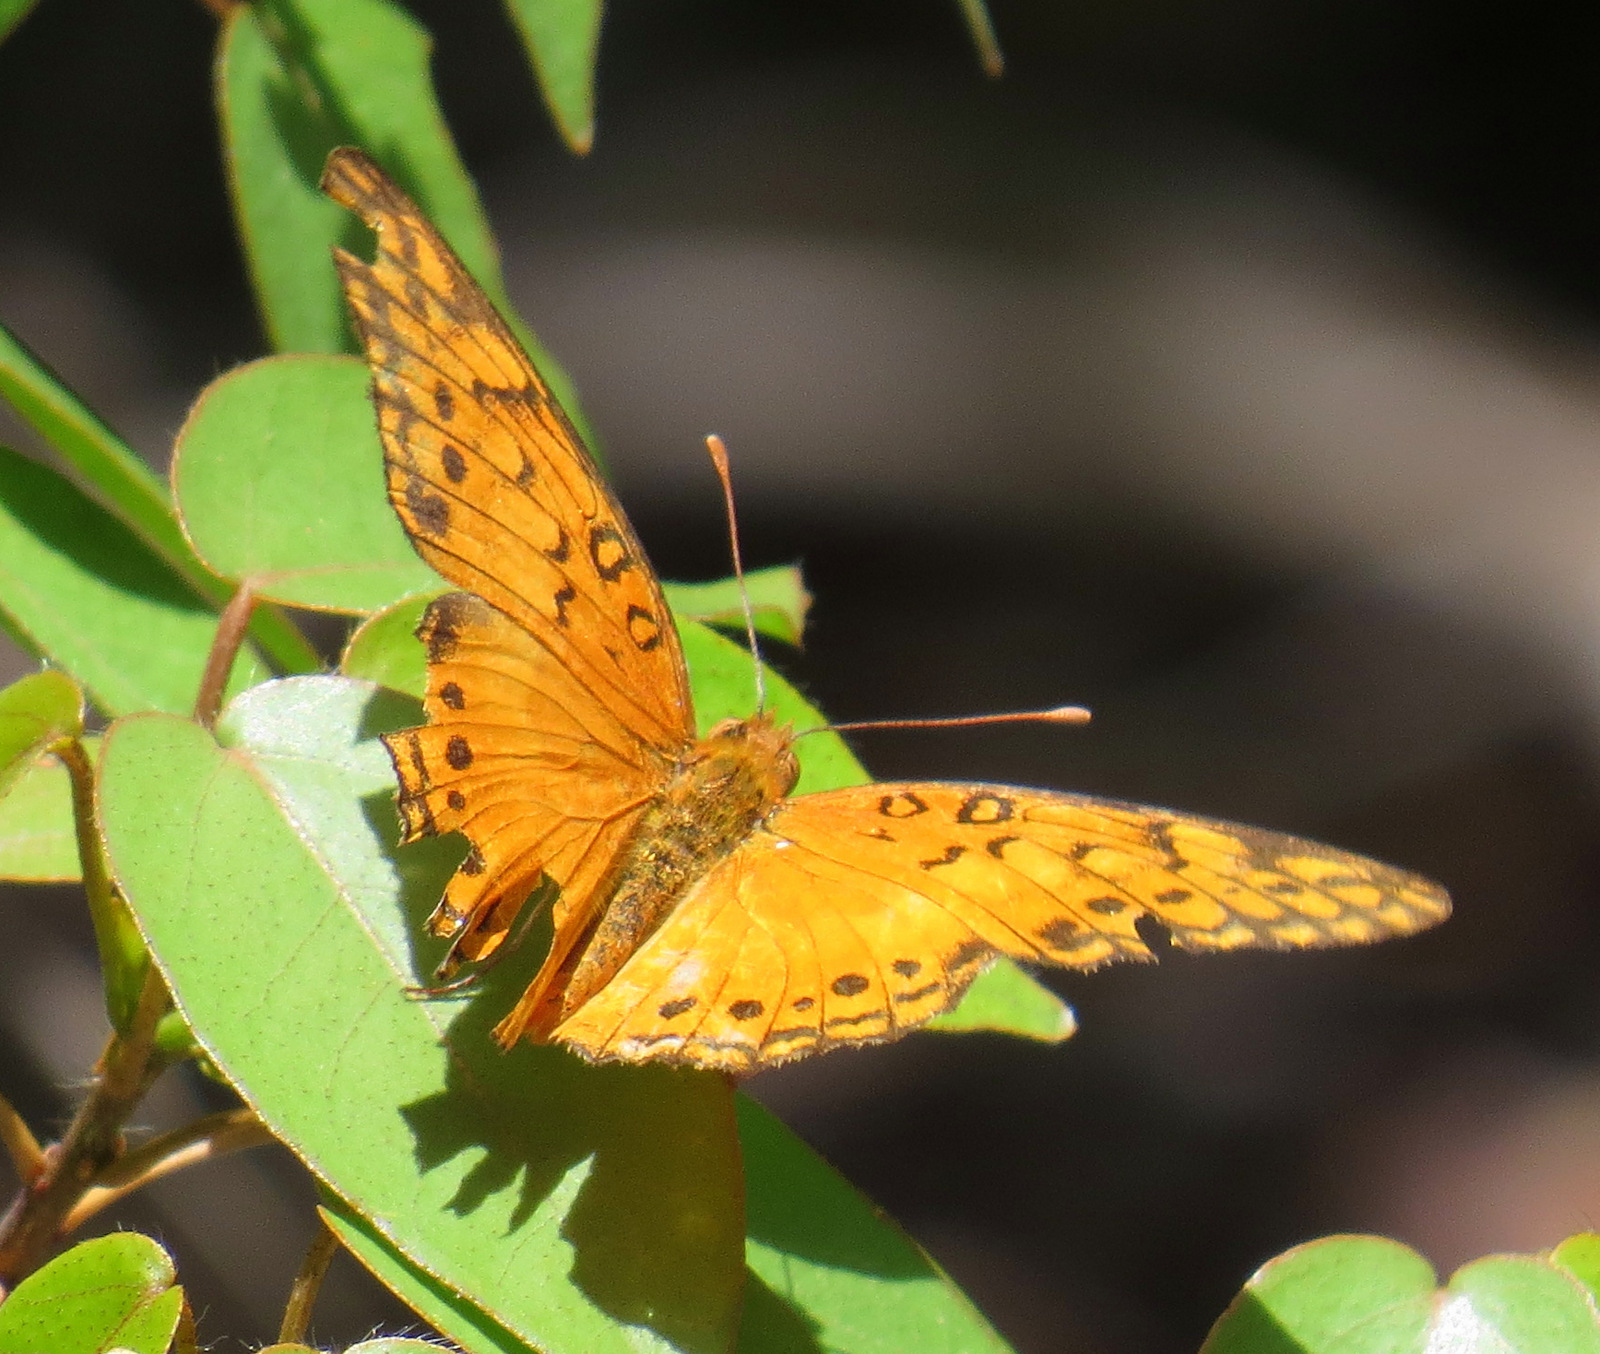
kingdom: Animalia
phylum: Arthropoda
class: Insecta
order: Lepidoptera
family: Nymphalidae
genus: Euptoieta
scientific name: Euptoieta hegesia
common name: Mexican fritillary
